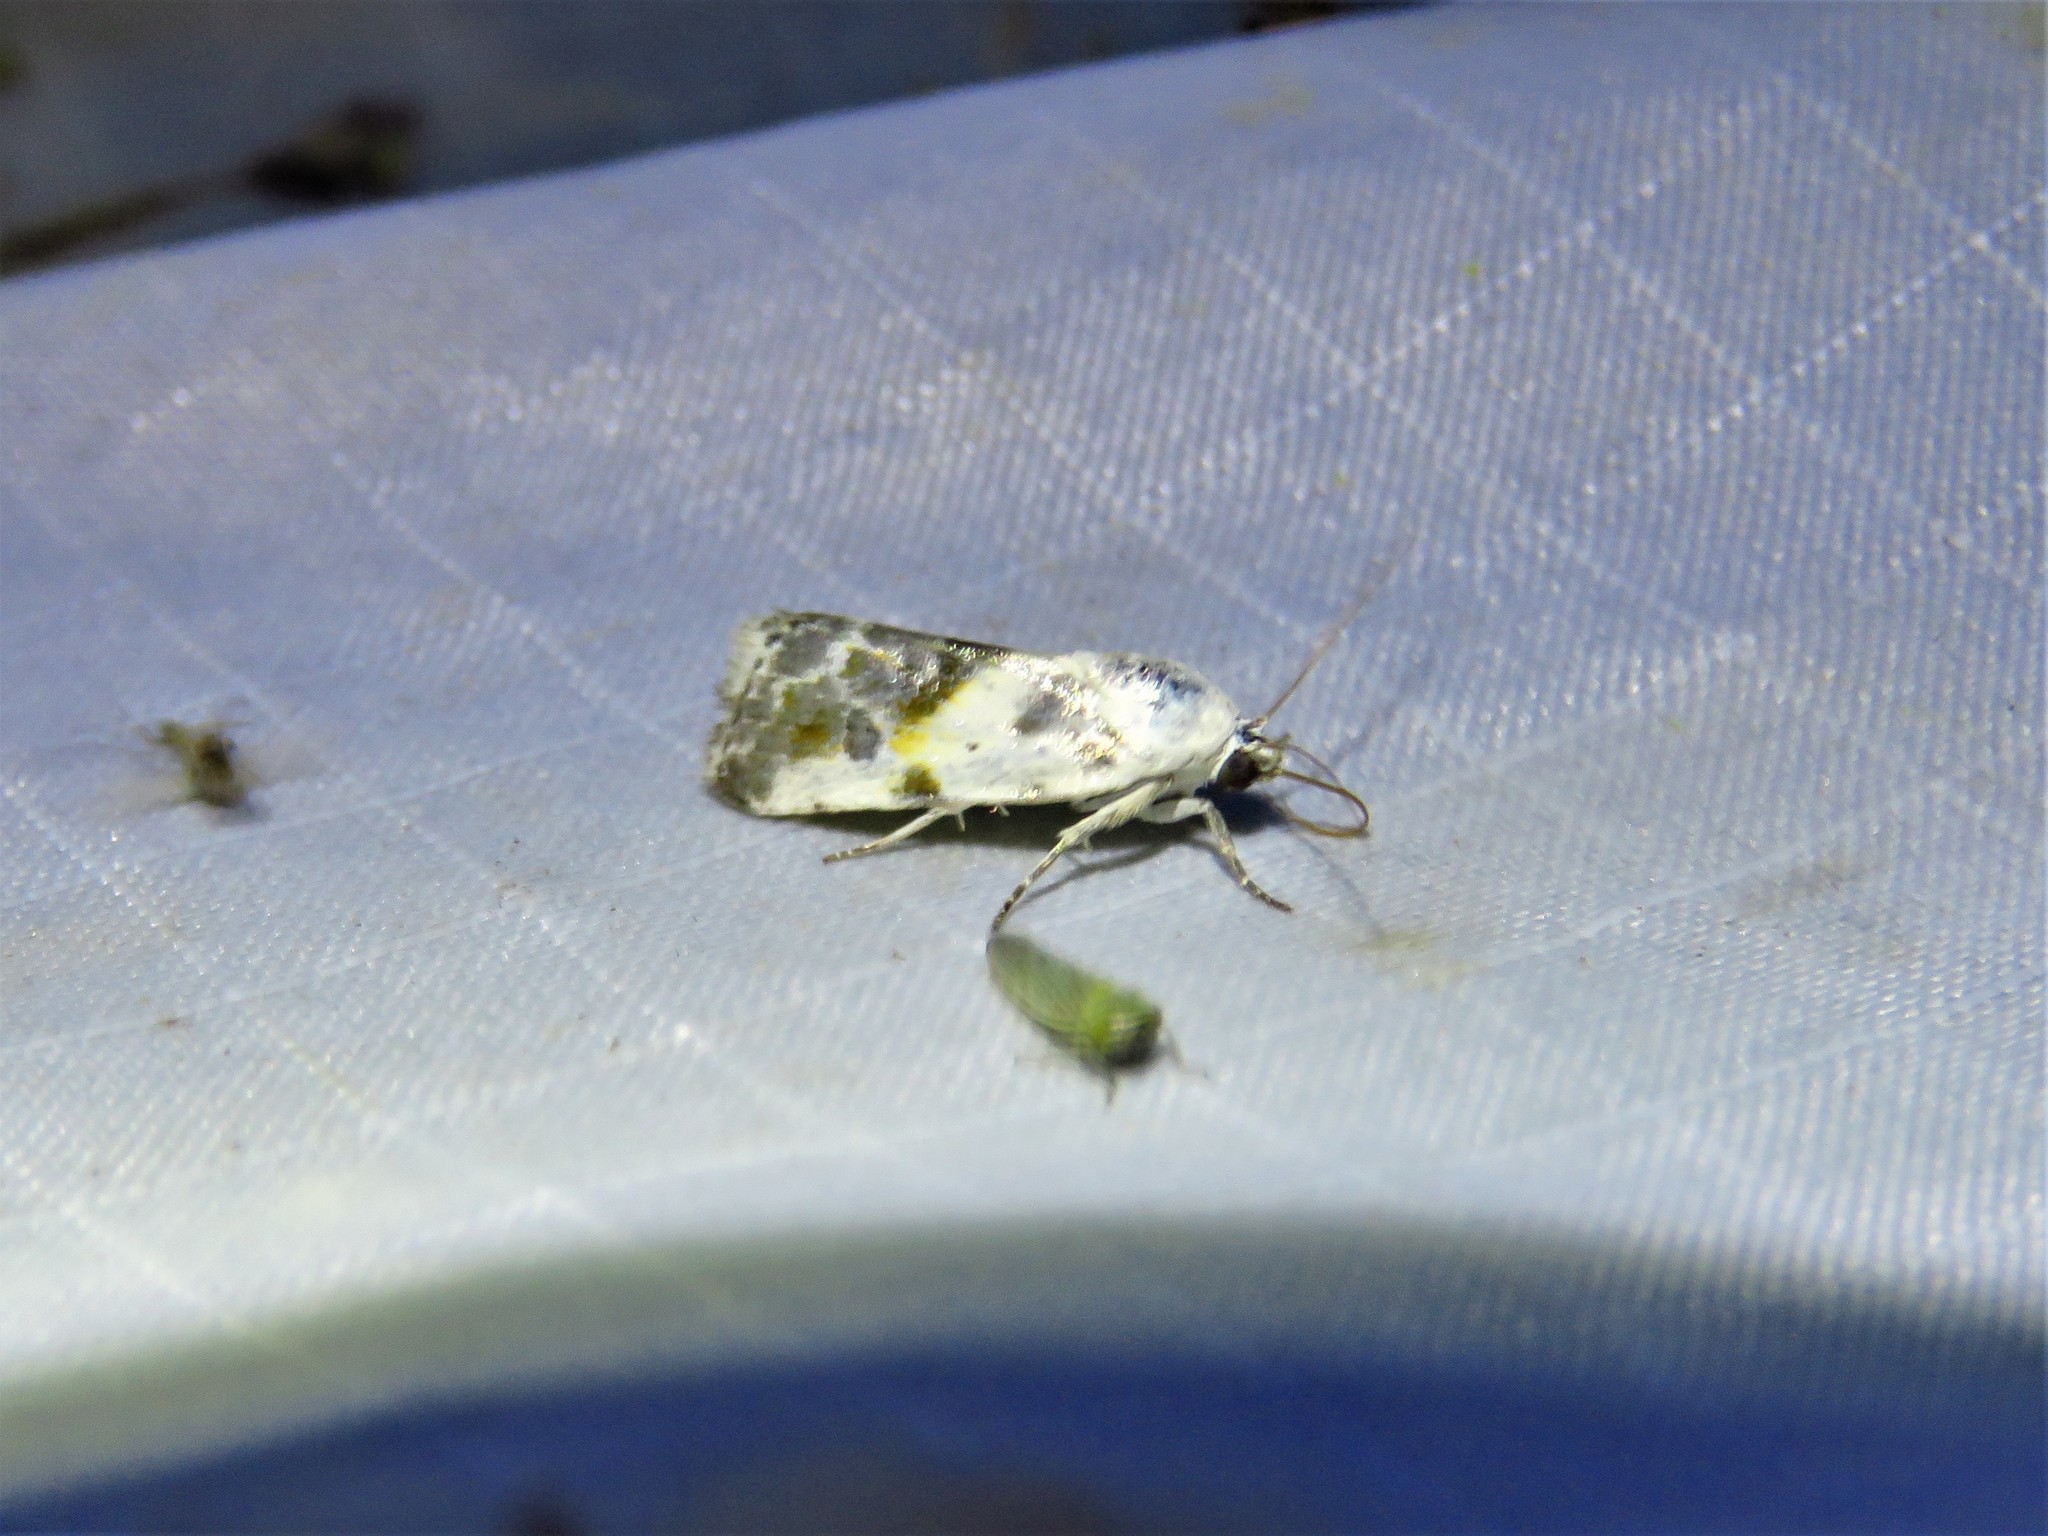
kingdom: Animalia
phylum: Arthropoda
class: Insecta
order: Lepidoptera
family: Noctuidae
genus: Acontia
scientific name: Acontia candefacta
